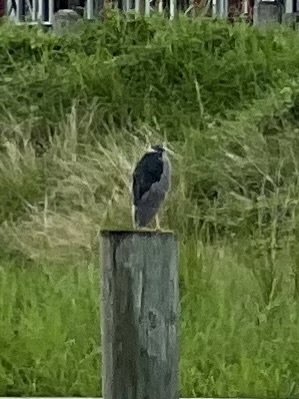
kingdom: Animalia
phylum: Chordata
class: Aves
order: Pelecaniformes
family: Ardeidae
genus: Nycticorax
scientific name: Nycticorax nycticorax
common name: Black-crowned night heron
